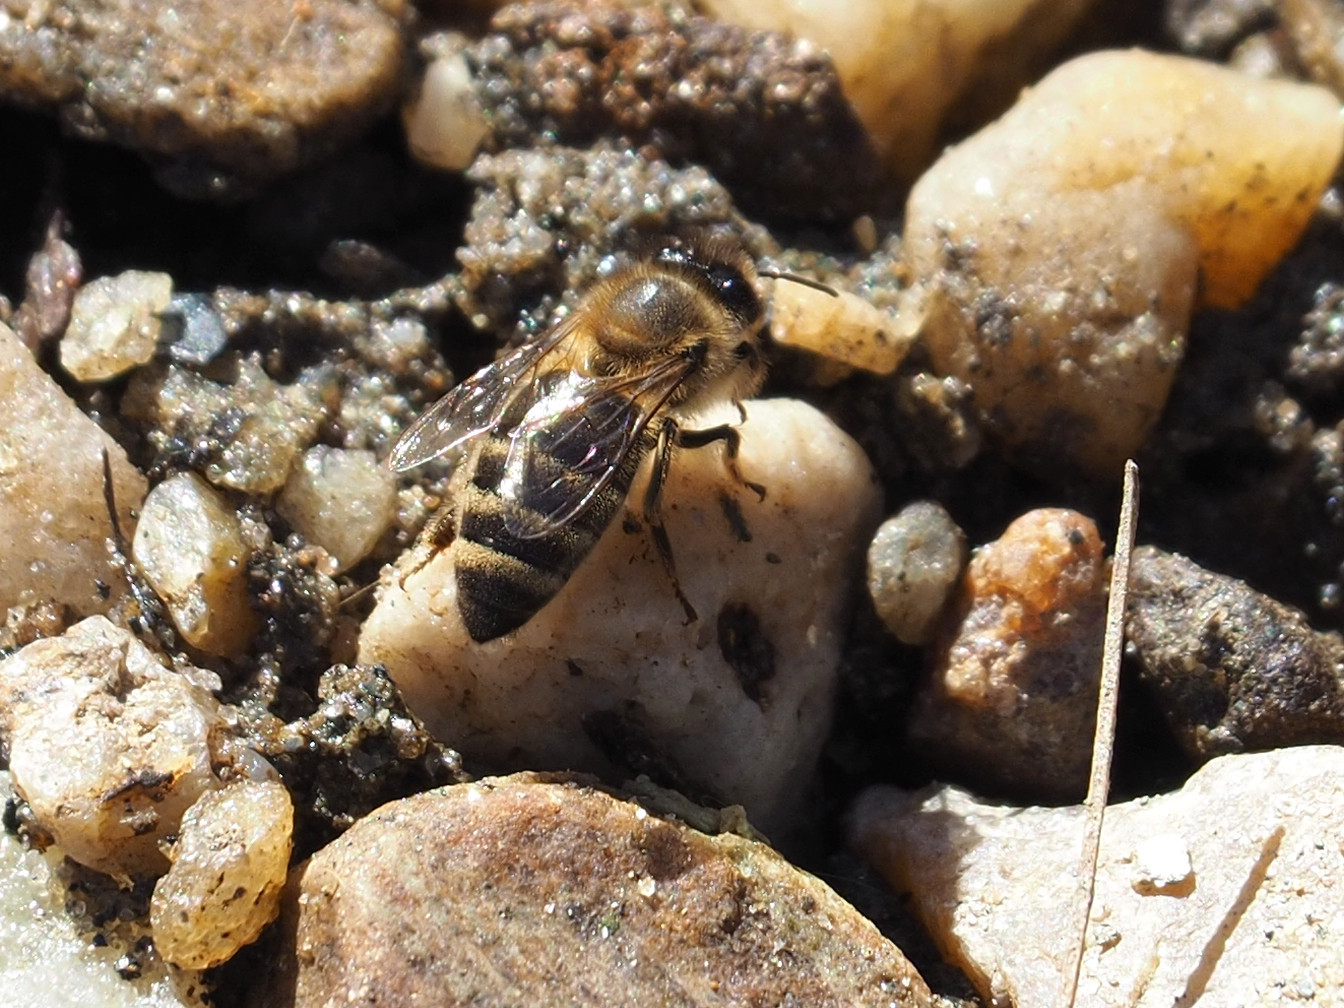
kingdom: Animalia
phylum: Arthropoda
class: Insecta
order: Hymenoptera
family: Apidae
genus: Apis
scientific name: Apis mellifera
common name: Honey bee
